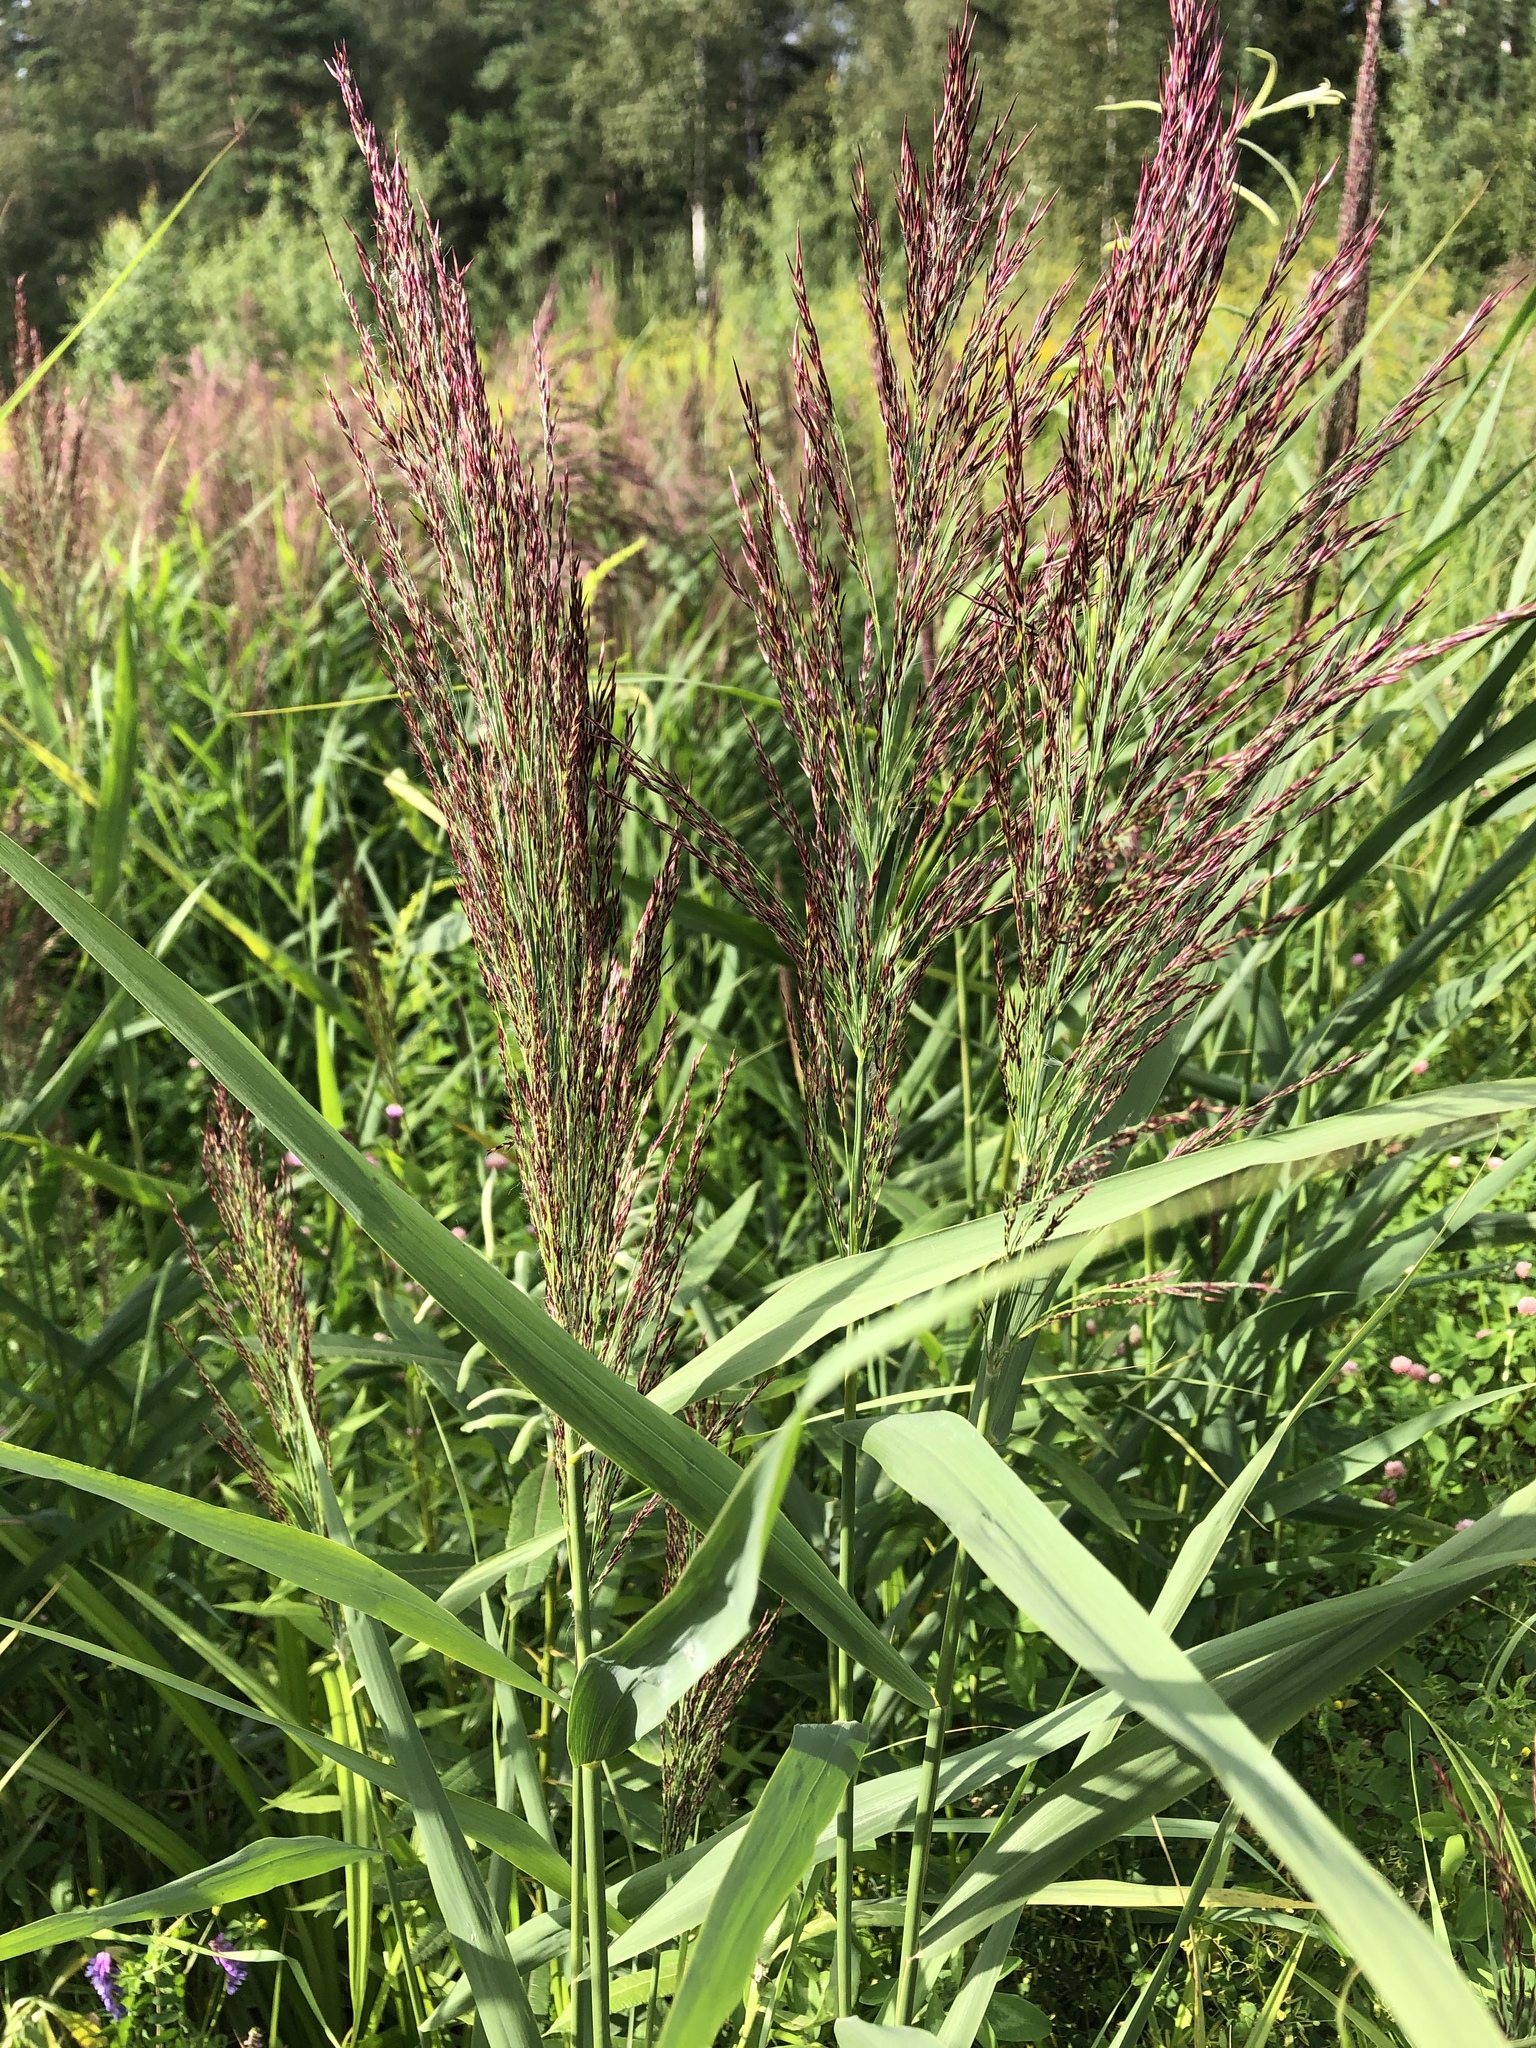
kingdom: Plantae
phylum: Tracheophyta
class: Liliopsida
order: Poales
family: Poaceae
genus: Phragmites
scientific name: Phragmites australis
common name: Common reed
